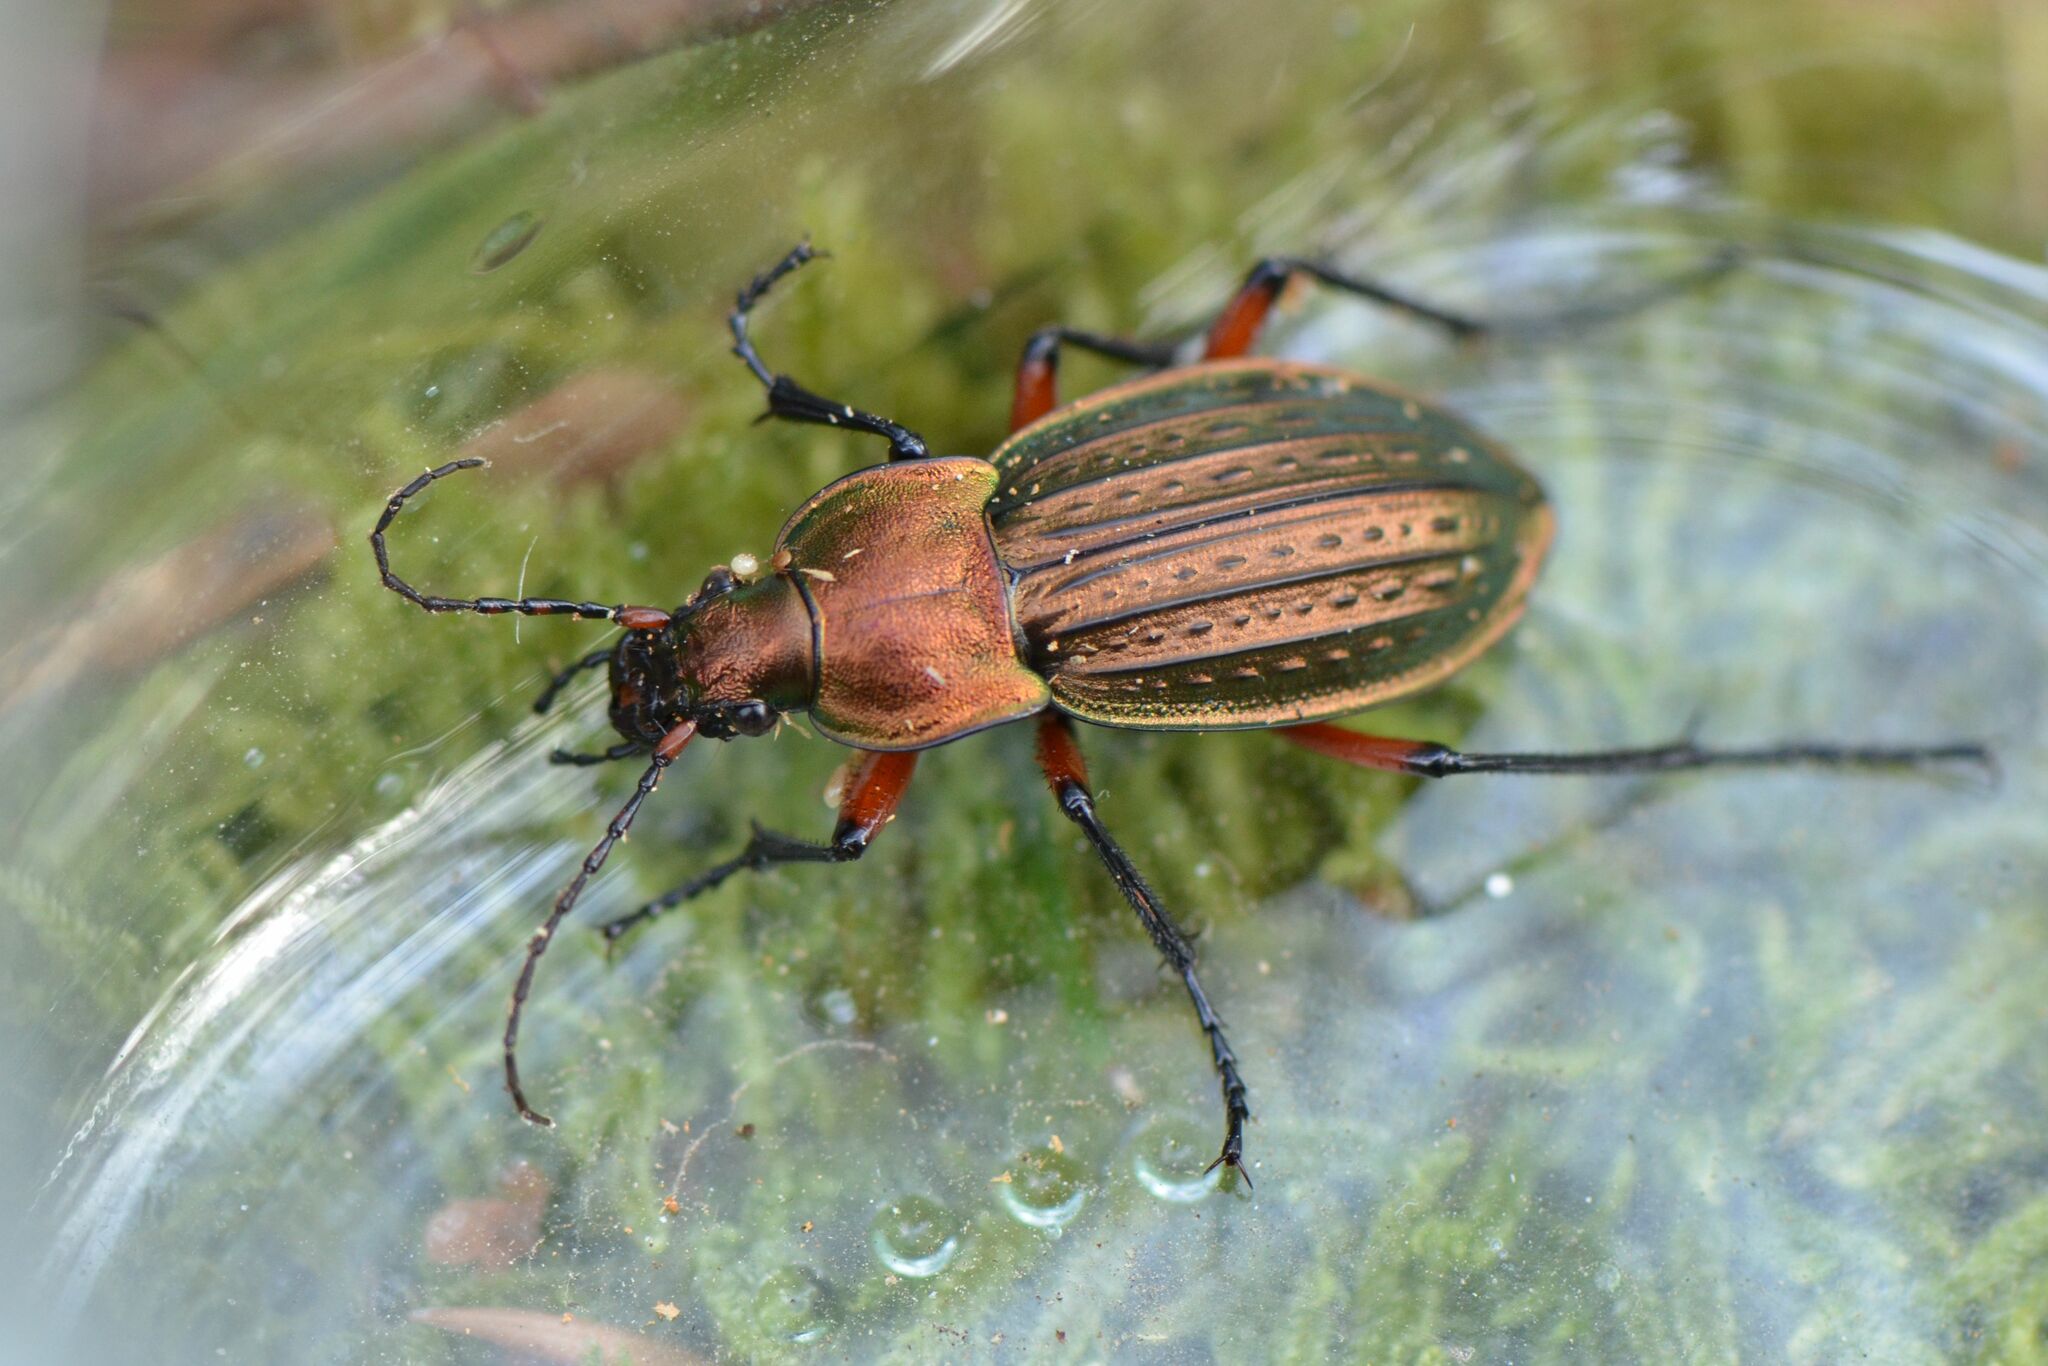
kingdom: Animalia
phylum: Arthropoda
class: Insecta
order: Coleoptera
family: Carabidae
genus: Carabus
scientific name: Carabus cancellatus
